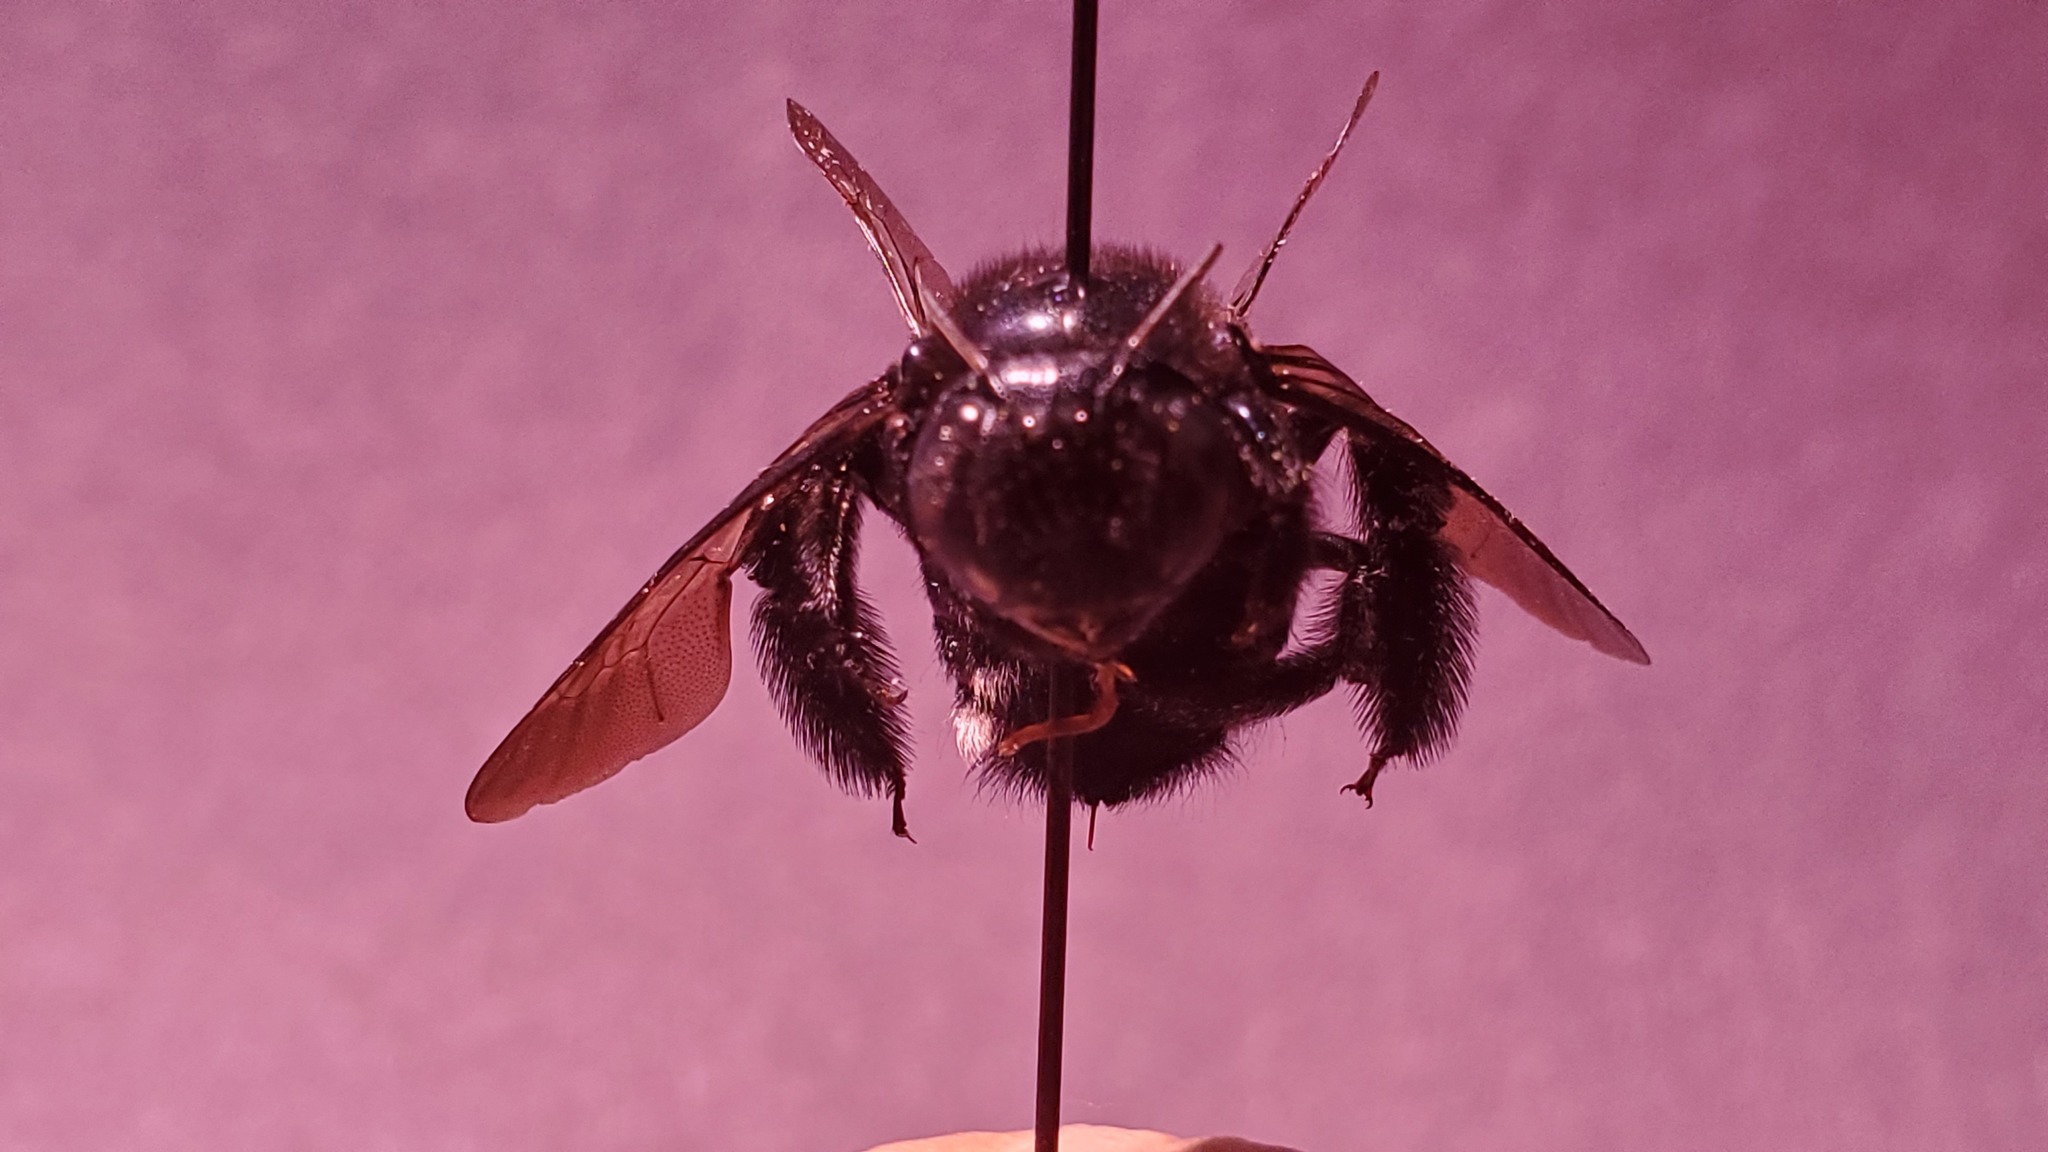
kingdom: Animalia
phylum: Arthropoda
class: Insecta
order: Hymenoptera
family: Apidae
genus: Xylocopa
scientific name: Xylocopa micans
